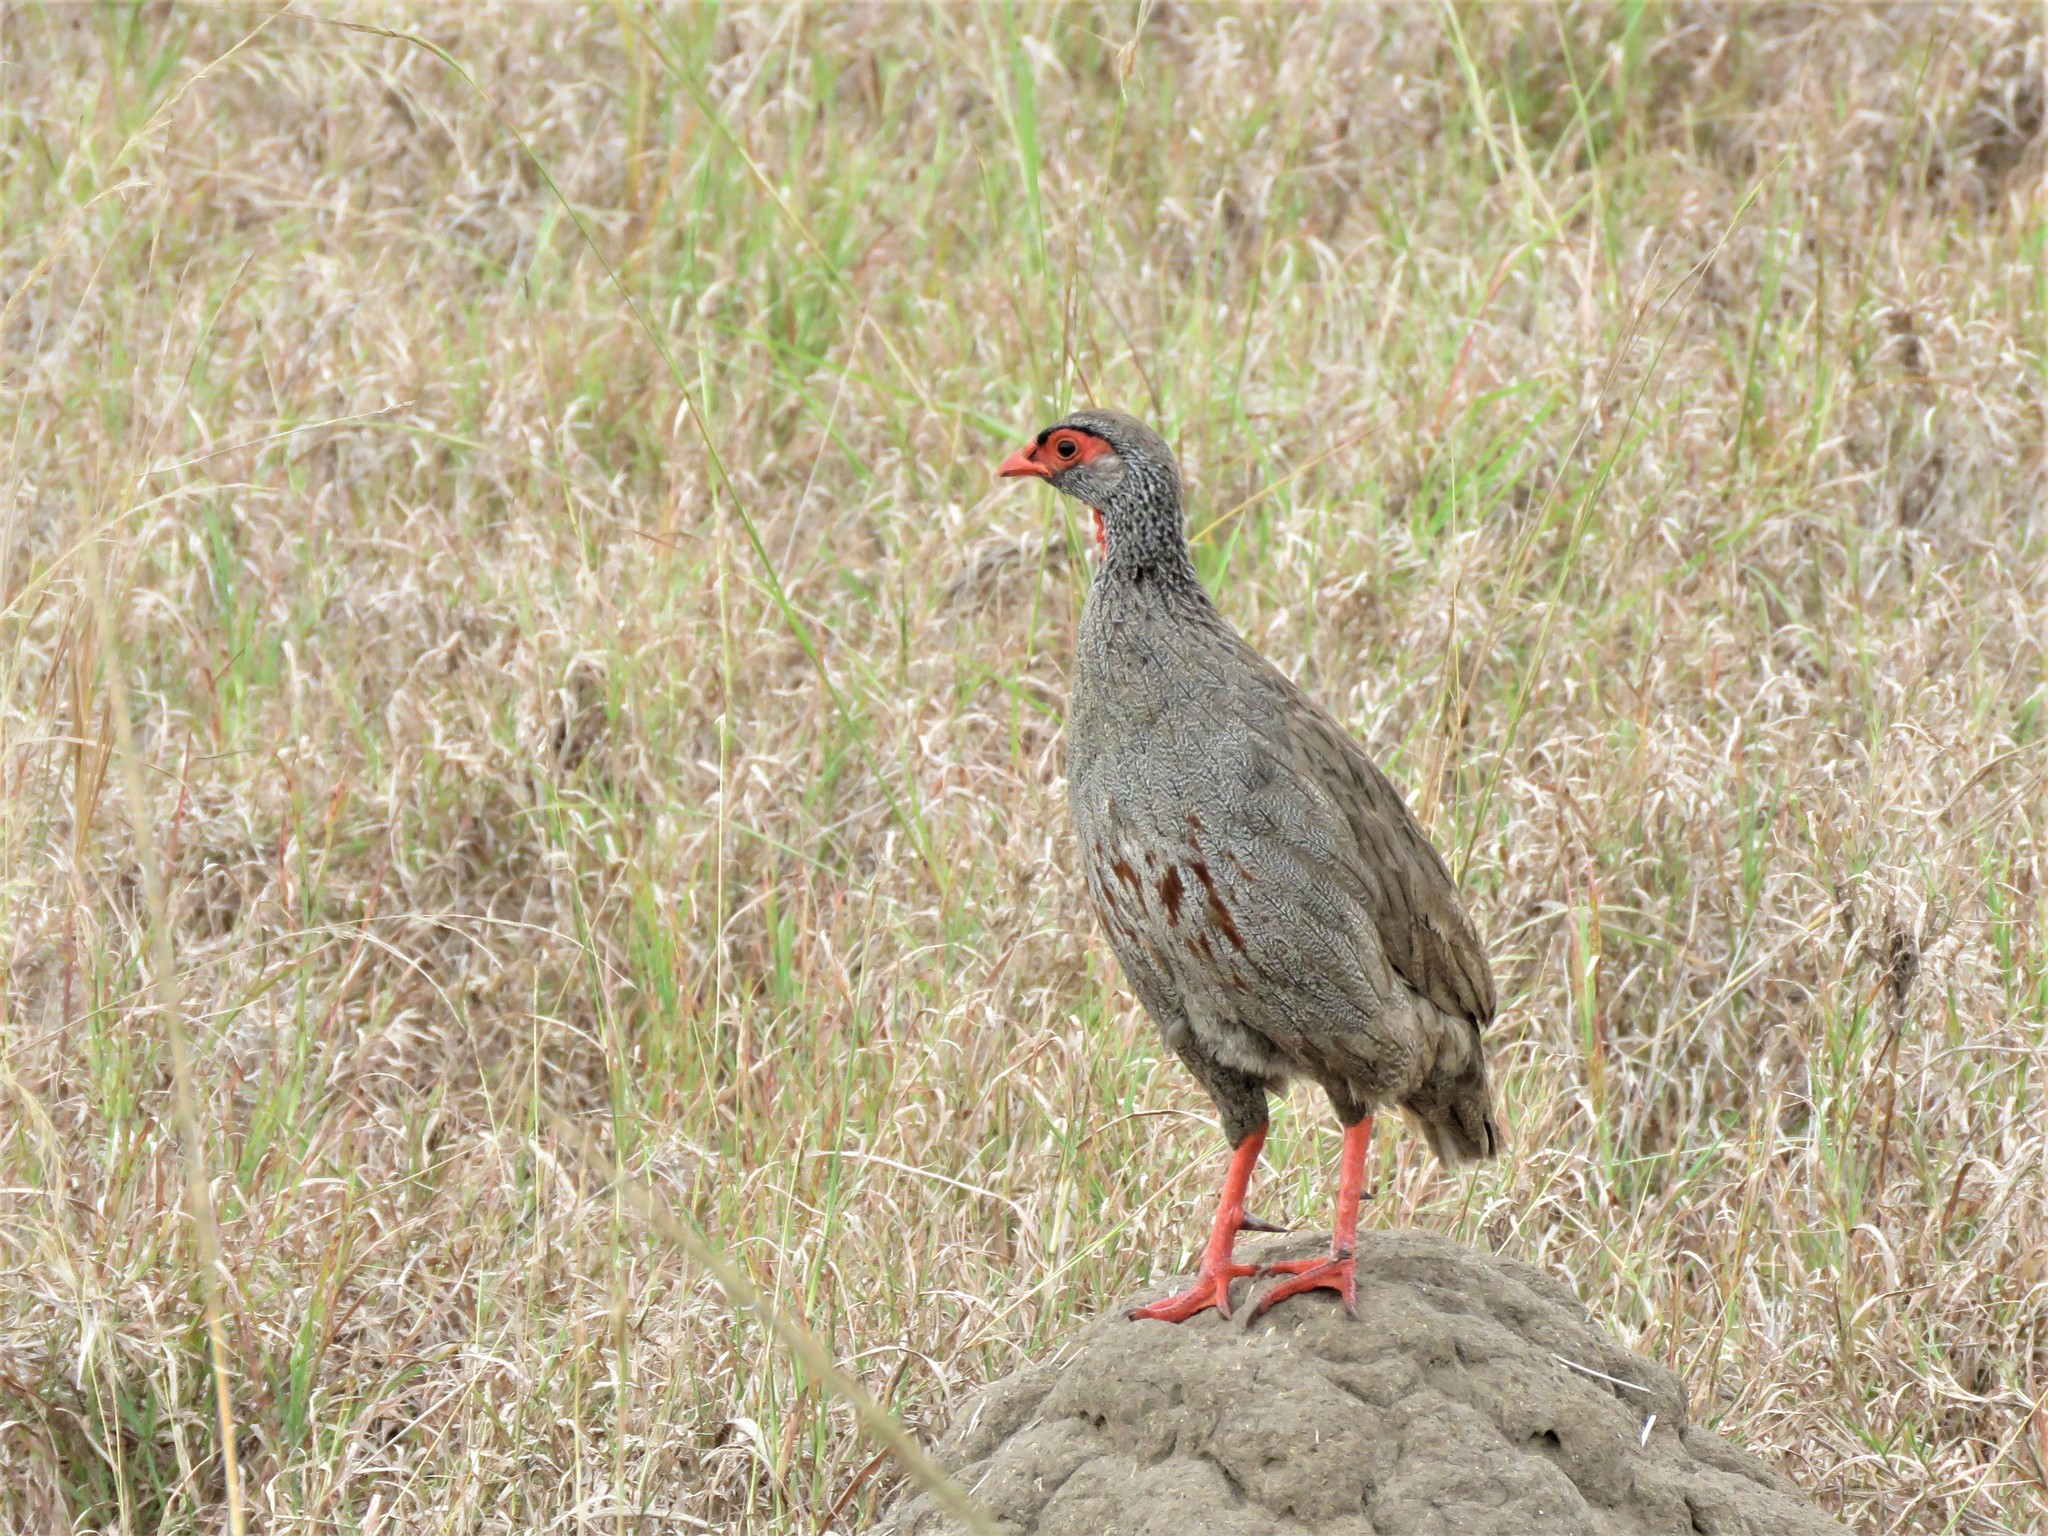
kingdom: Animalia
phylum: Chordata
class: Aves
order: Galliformes
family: Phasianidae
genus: Pternistis
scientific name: Pternistis afer
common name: Red-necked spurfowl
